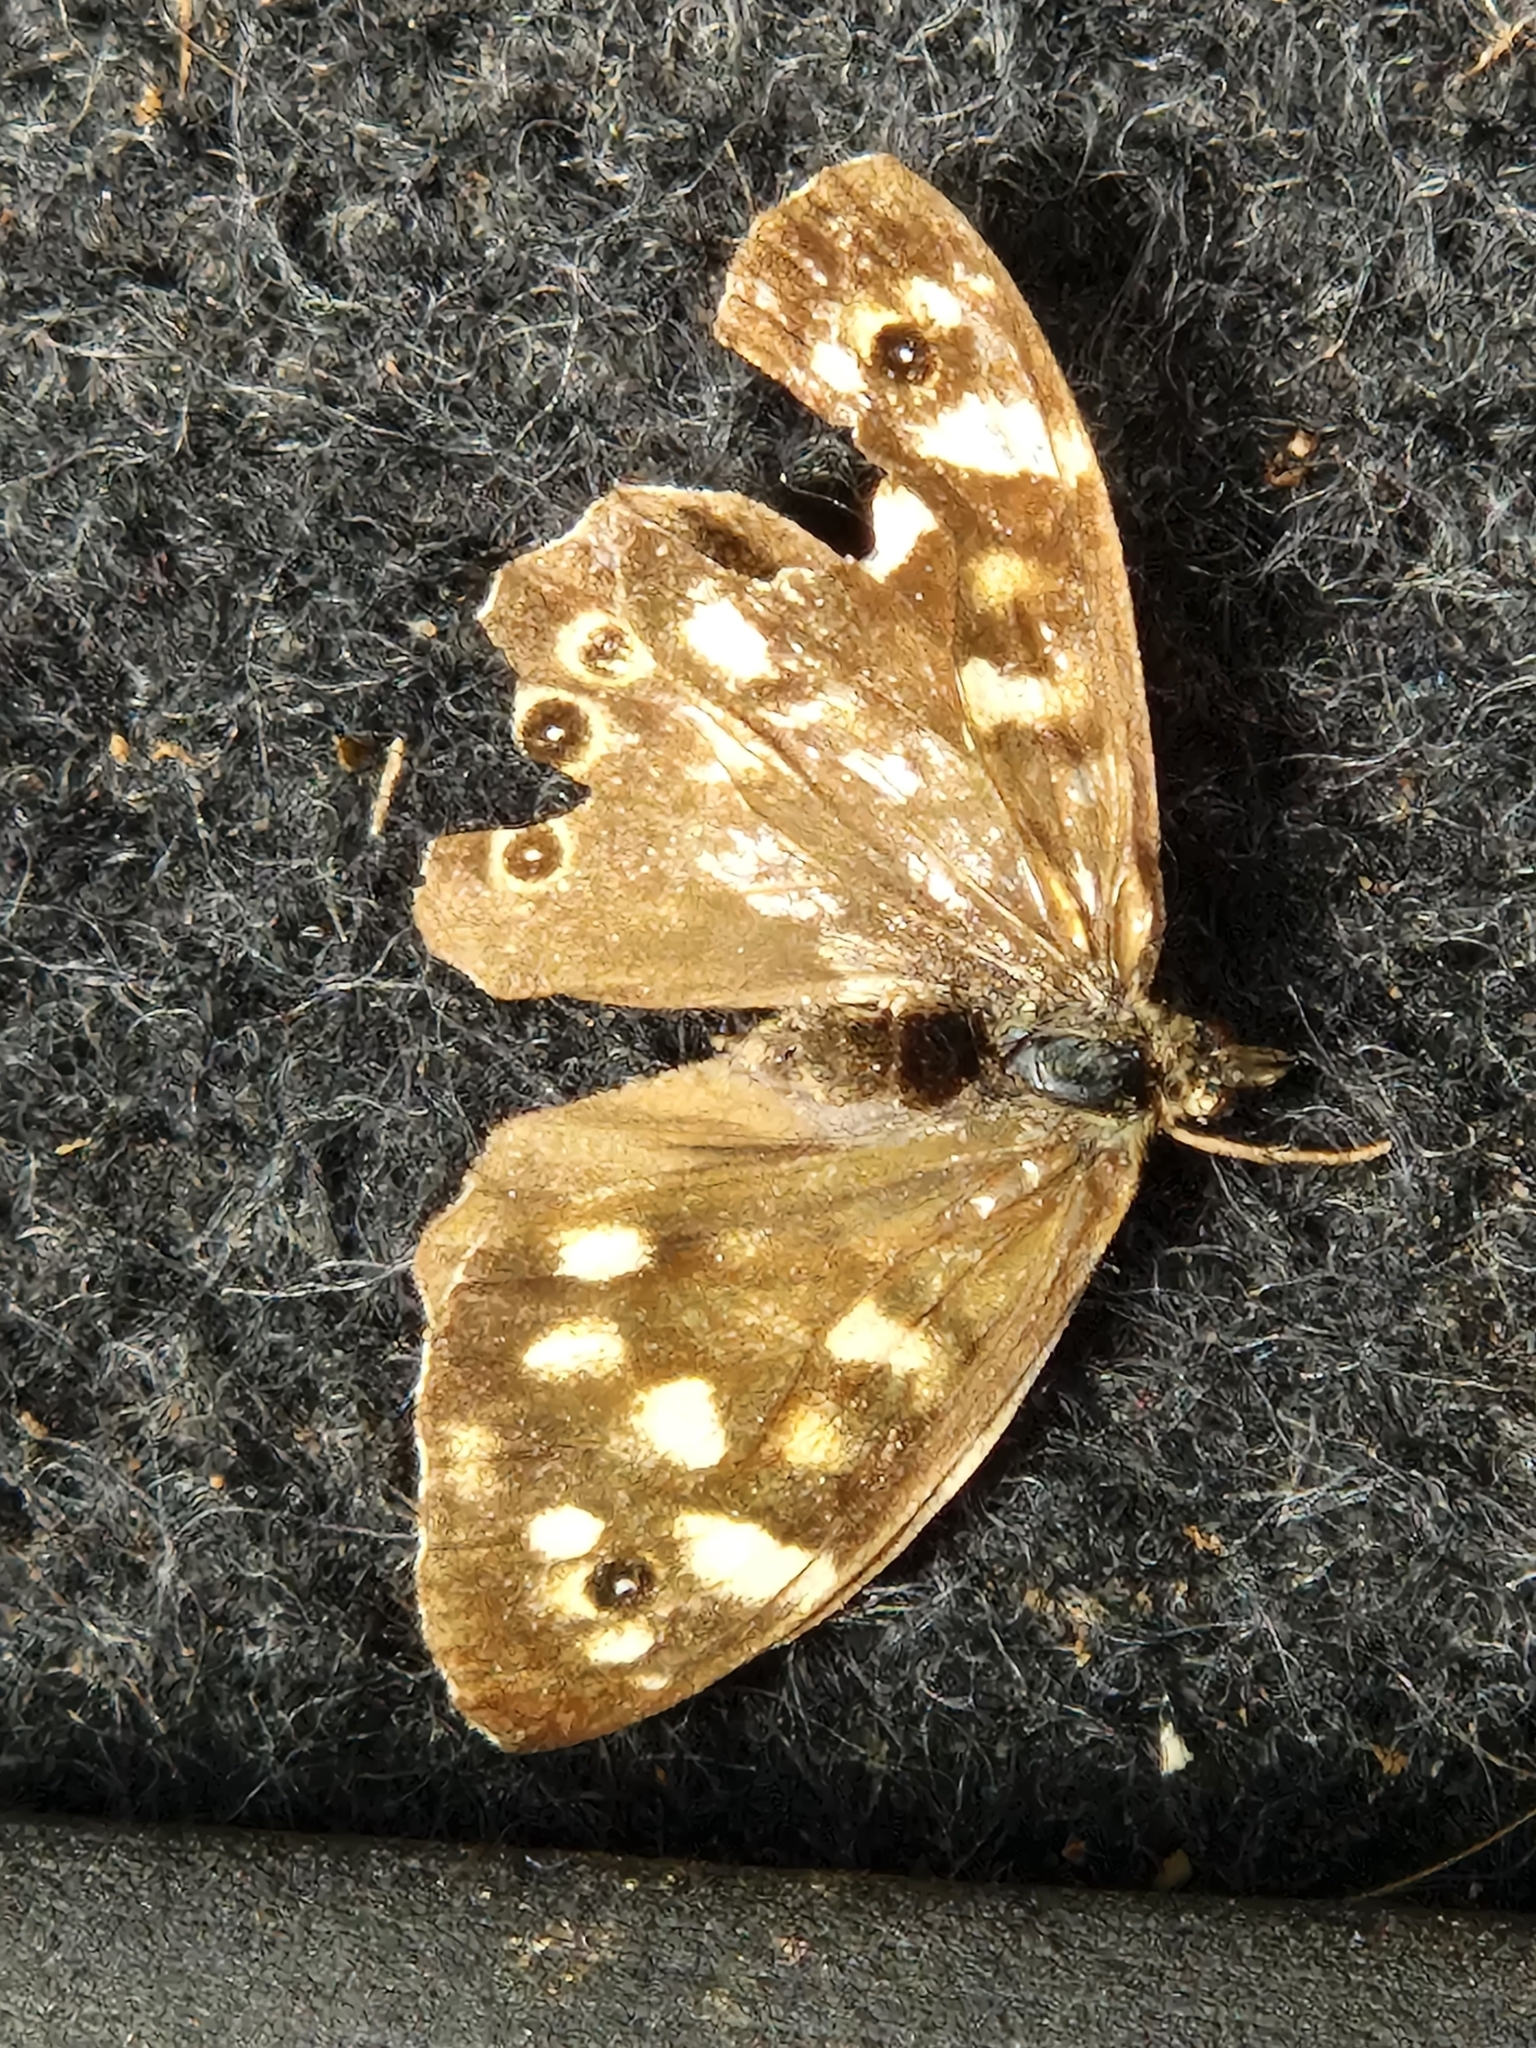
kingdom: Animalia
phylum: Arthropoda
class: Insecta
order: Lepidoptera
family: Nymphalidae
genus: Pararge
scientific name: Pararge aegeria
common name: Speckled wood
